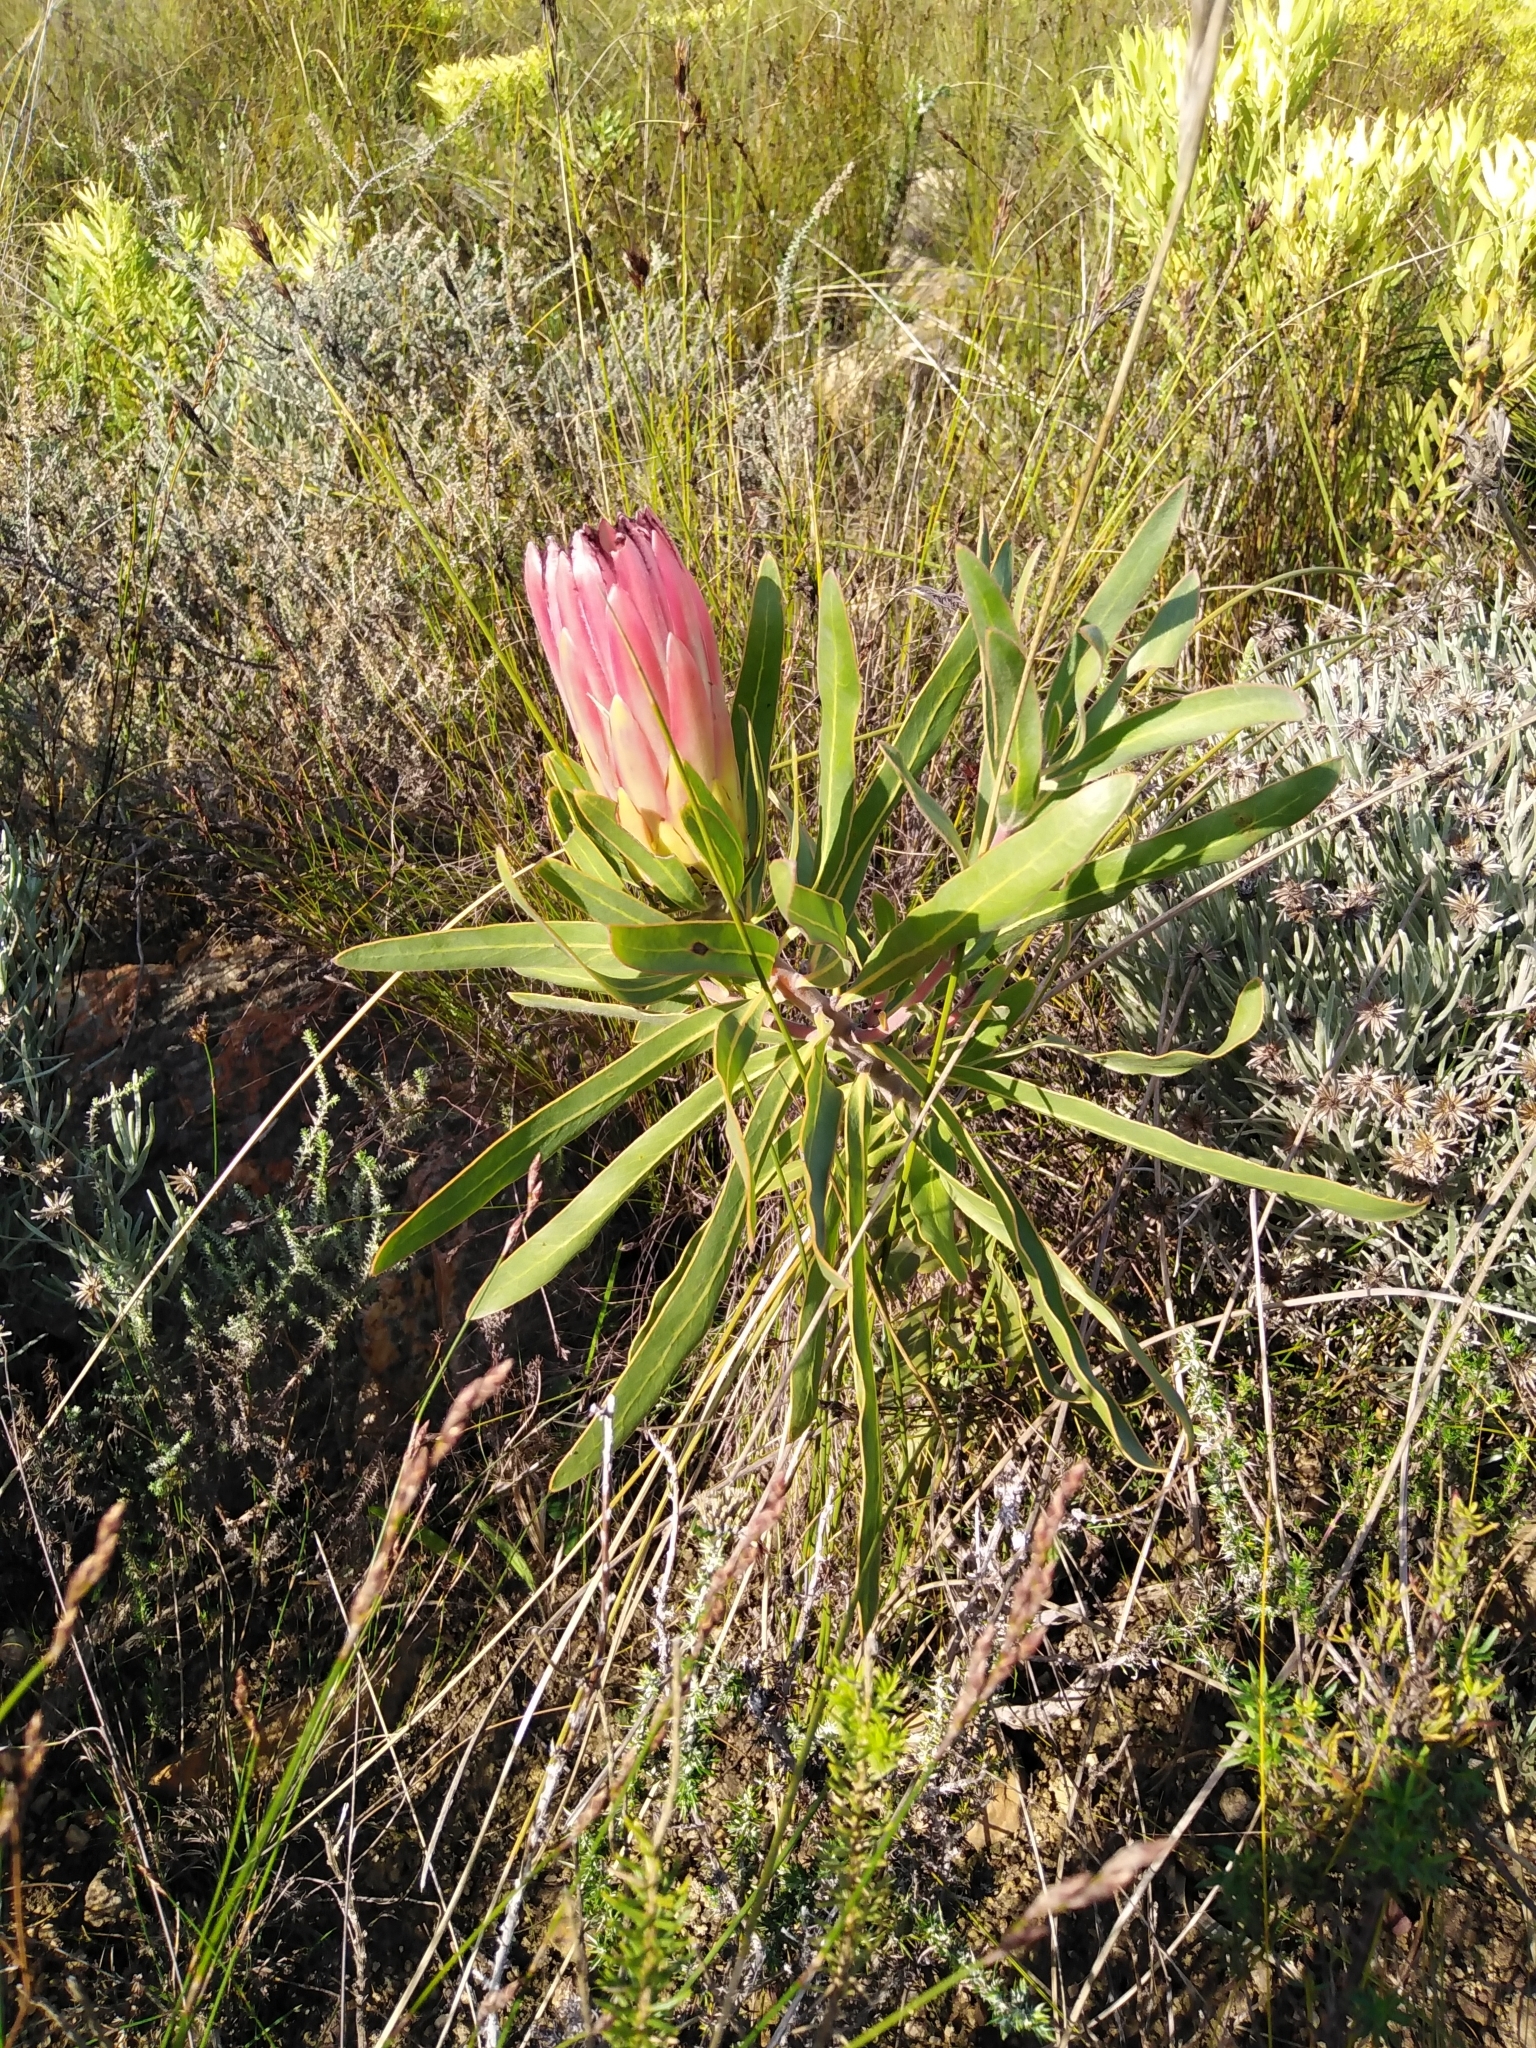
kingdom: Plantae
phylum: Tracheophyta
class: Magnoliopsida
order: Proteales
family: Proteaceae
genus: Protea
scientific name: Protea burchellii
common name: Burchell's sugarbush
